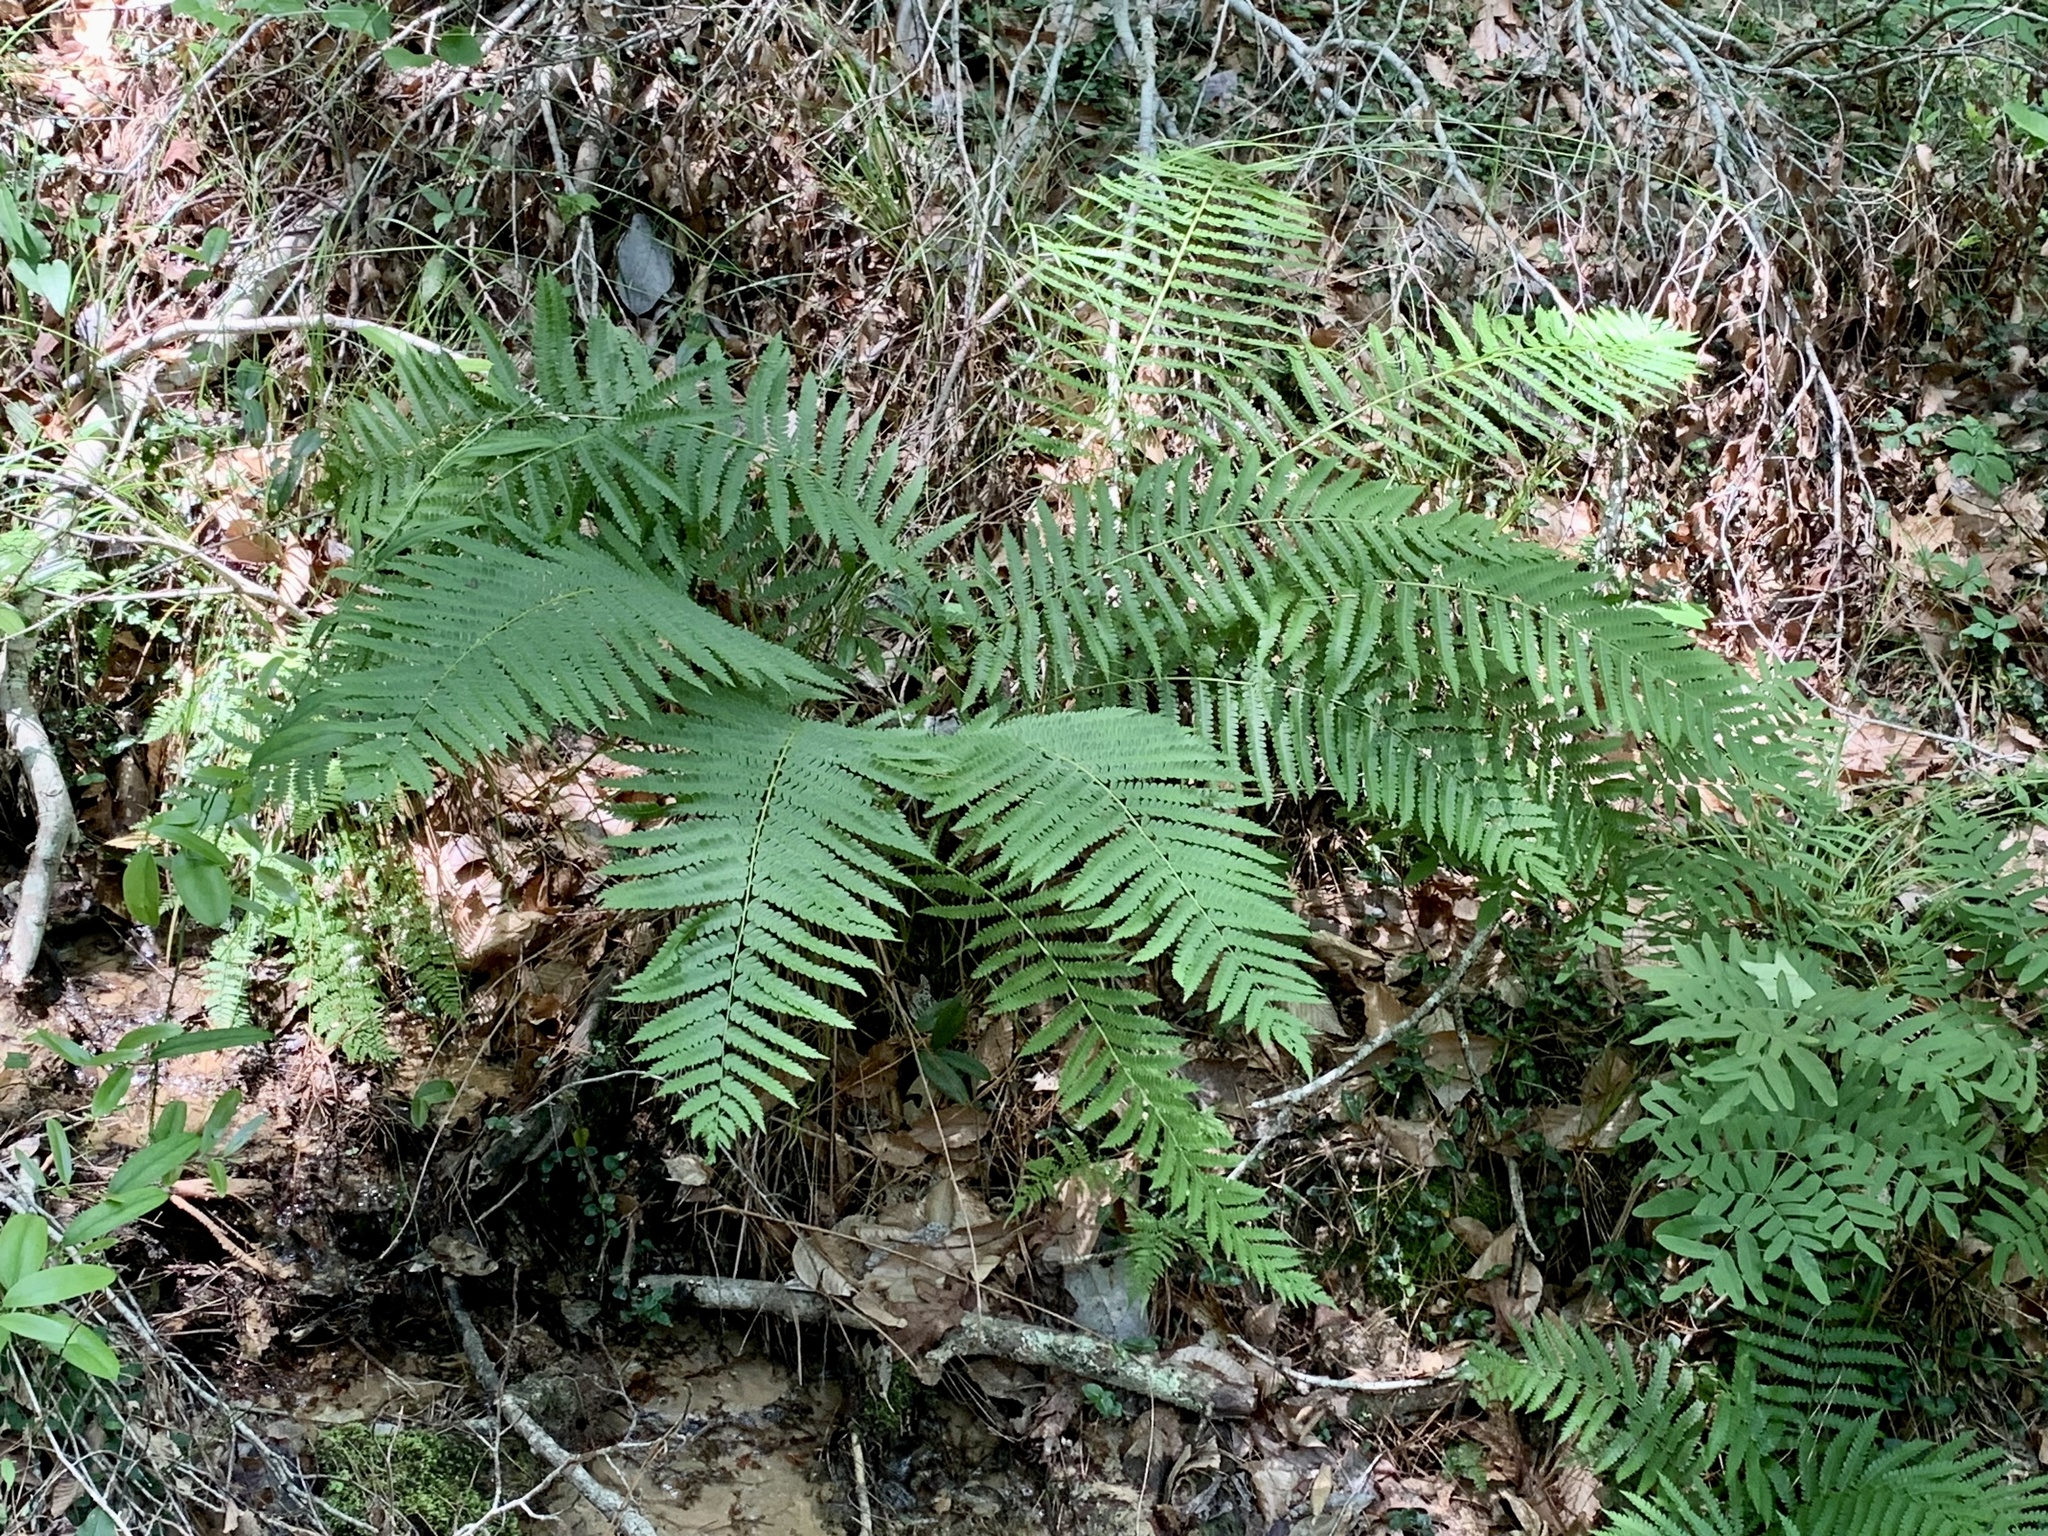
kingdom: Plantae
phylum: Tracheophyta
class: Polypodiopsida
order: Osmundales
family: Osmundaceae
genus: Osmundastrum
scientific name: Osmundastrum cinnamomeum
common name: Cinnamon fern
